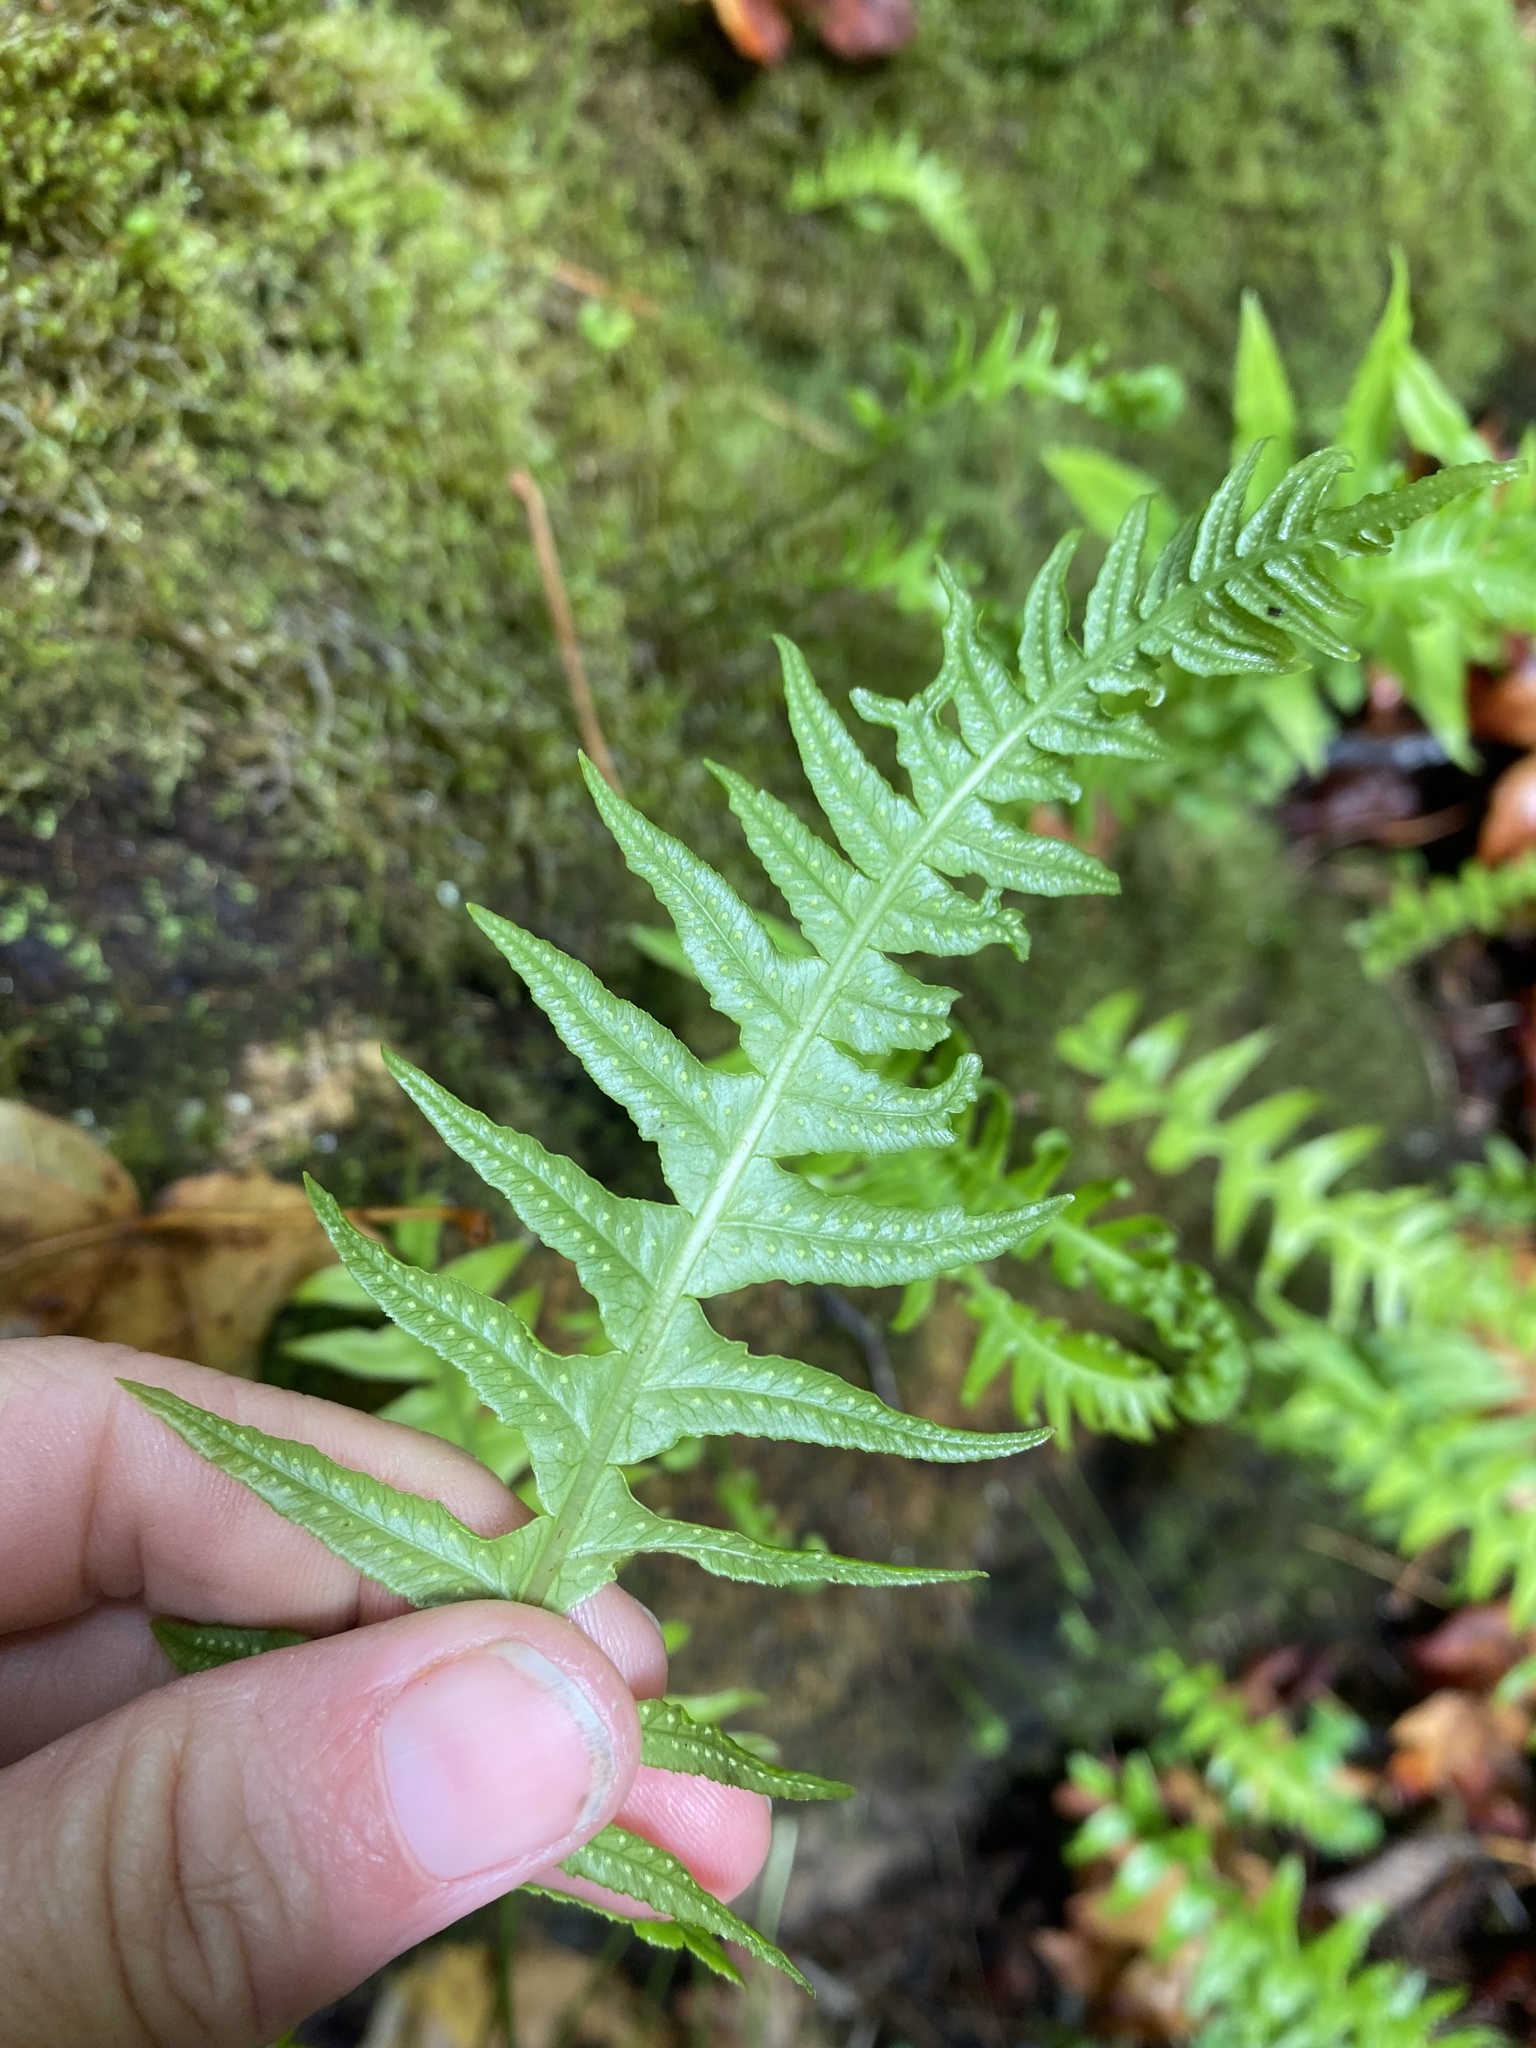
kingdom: Plantae
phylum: Tracheophyta
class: Polypodiopsida
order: Polypodiales
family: Polypodiaceae
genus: Polypodium
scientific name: Polypodium glycyrrhiza
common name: Licorice fern
